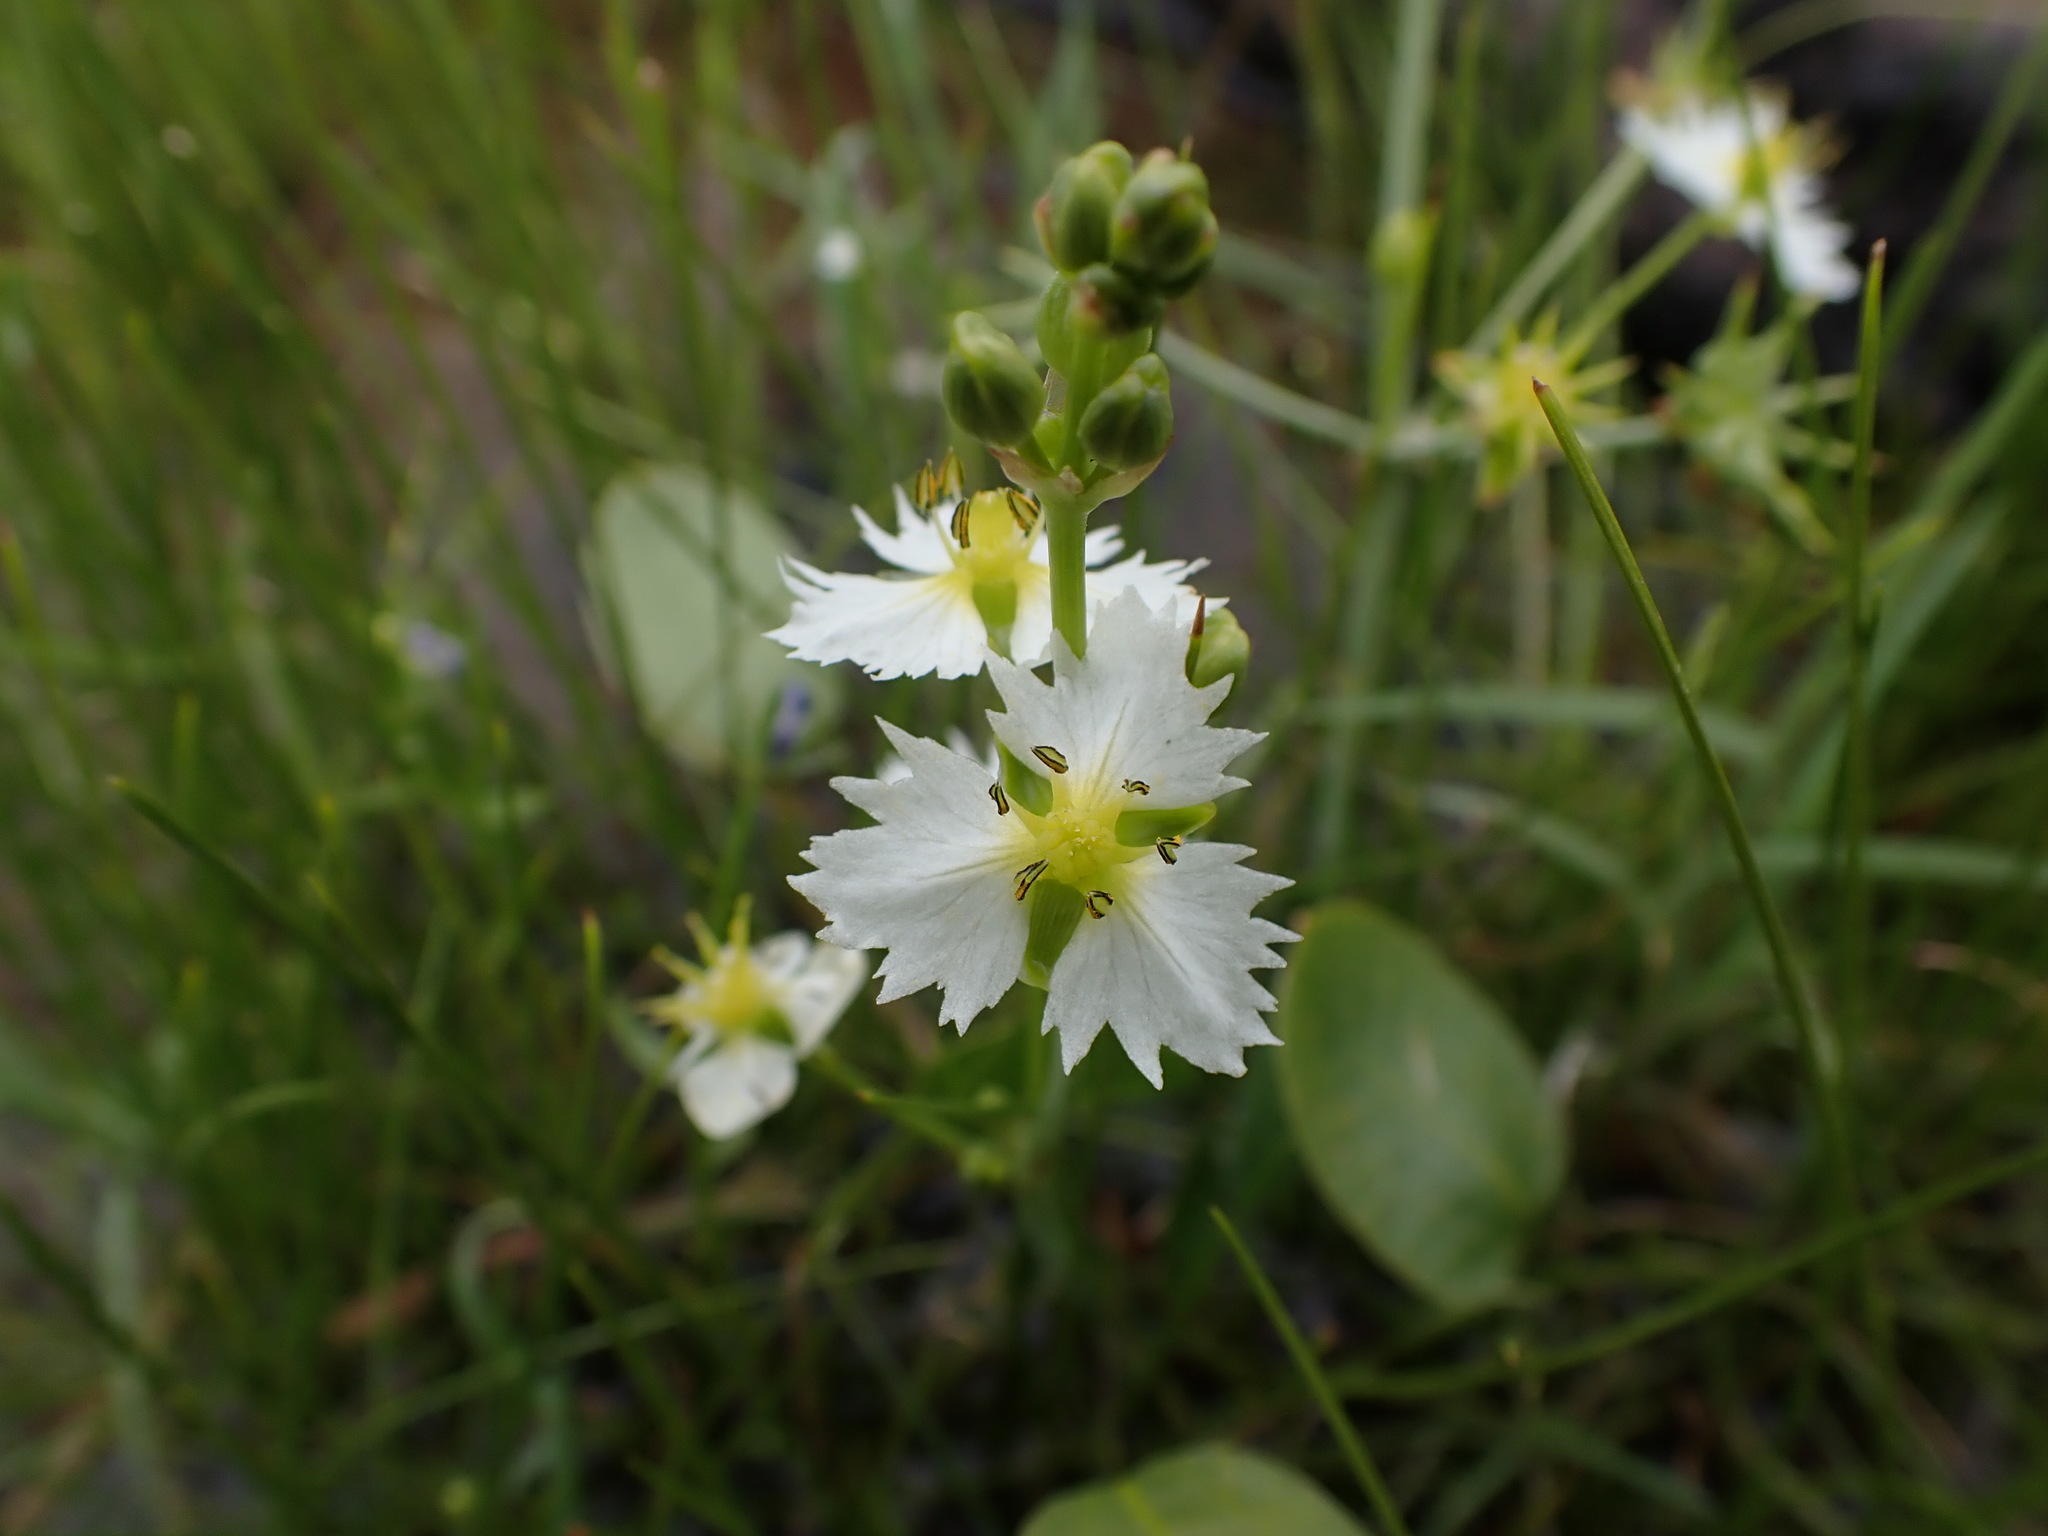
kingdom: Plantae
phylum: Tracheophyta
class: Liliopsida
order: Alismatales
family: Alismataceae
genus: Damasonium
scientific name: Damasonium californicum
